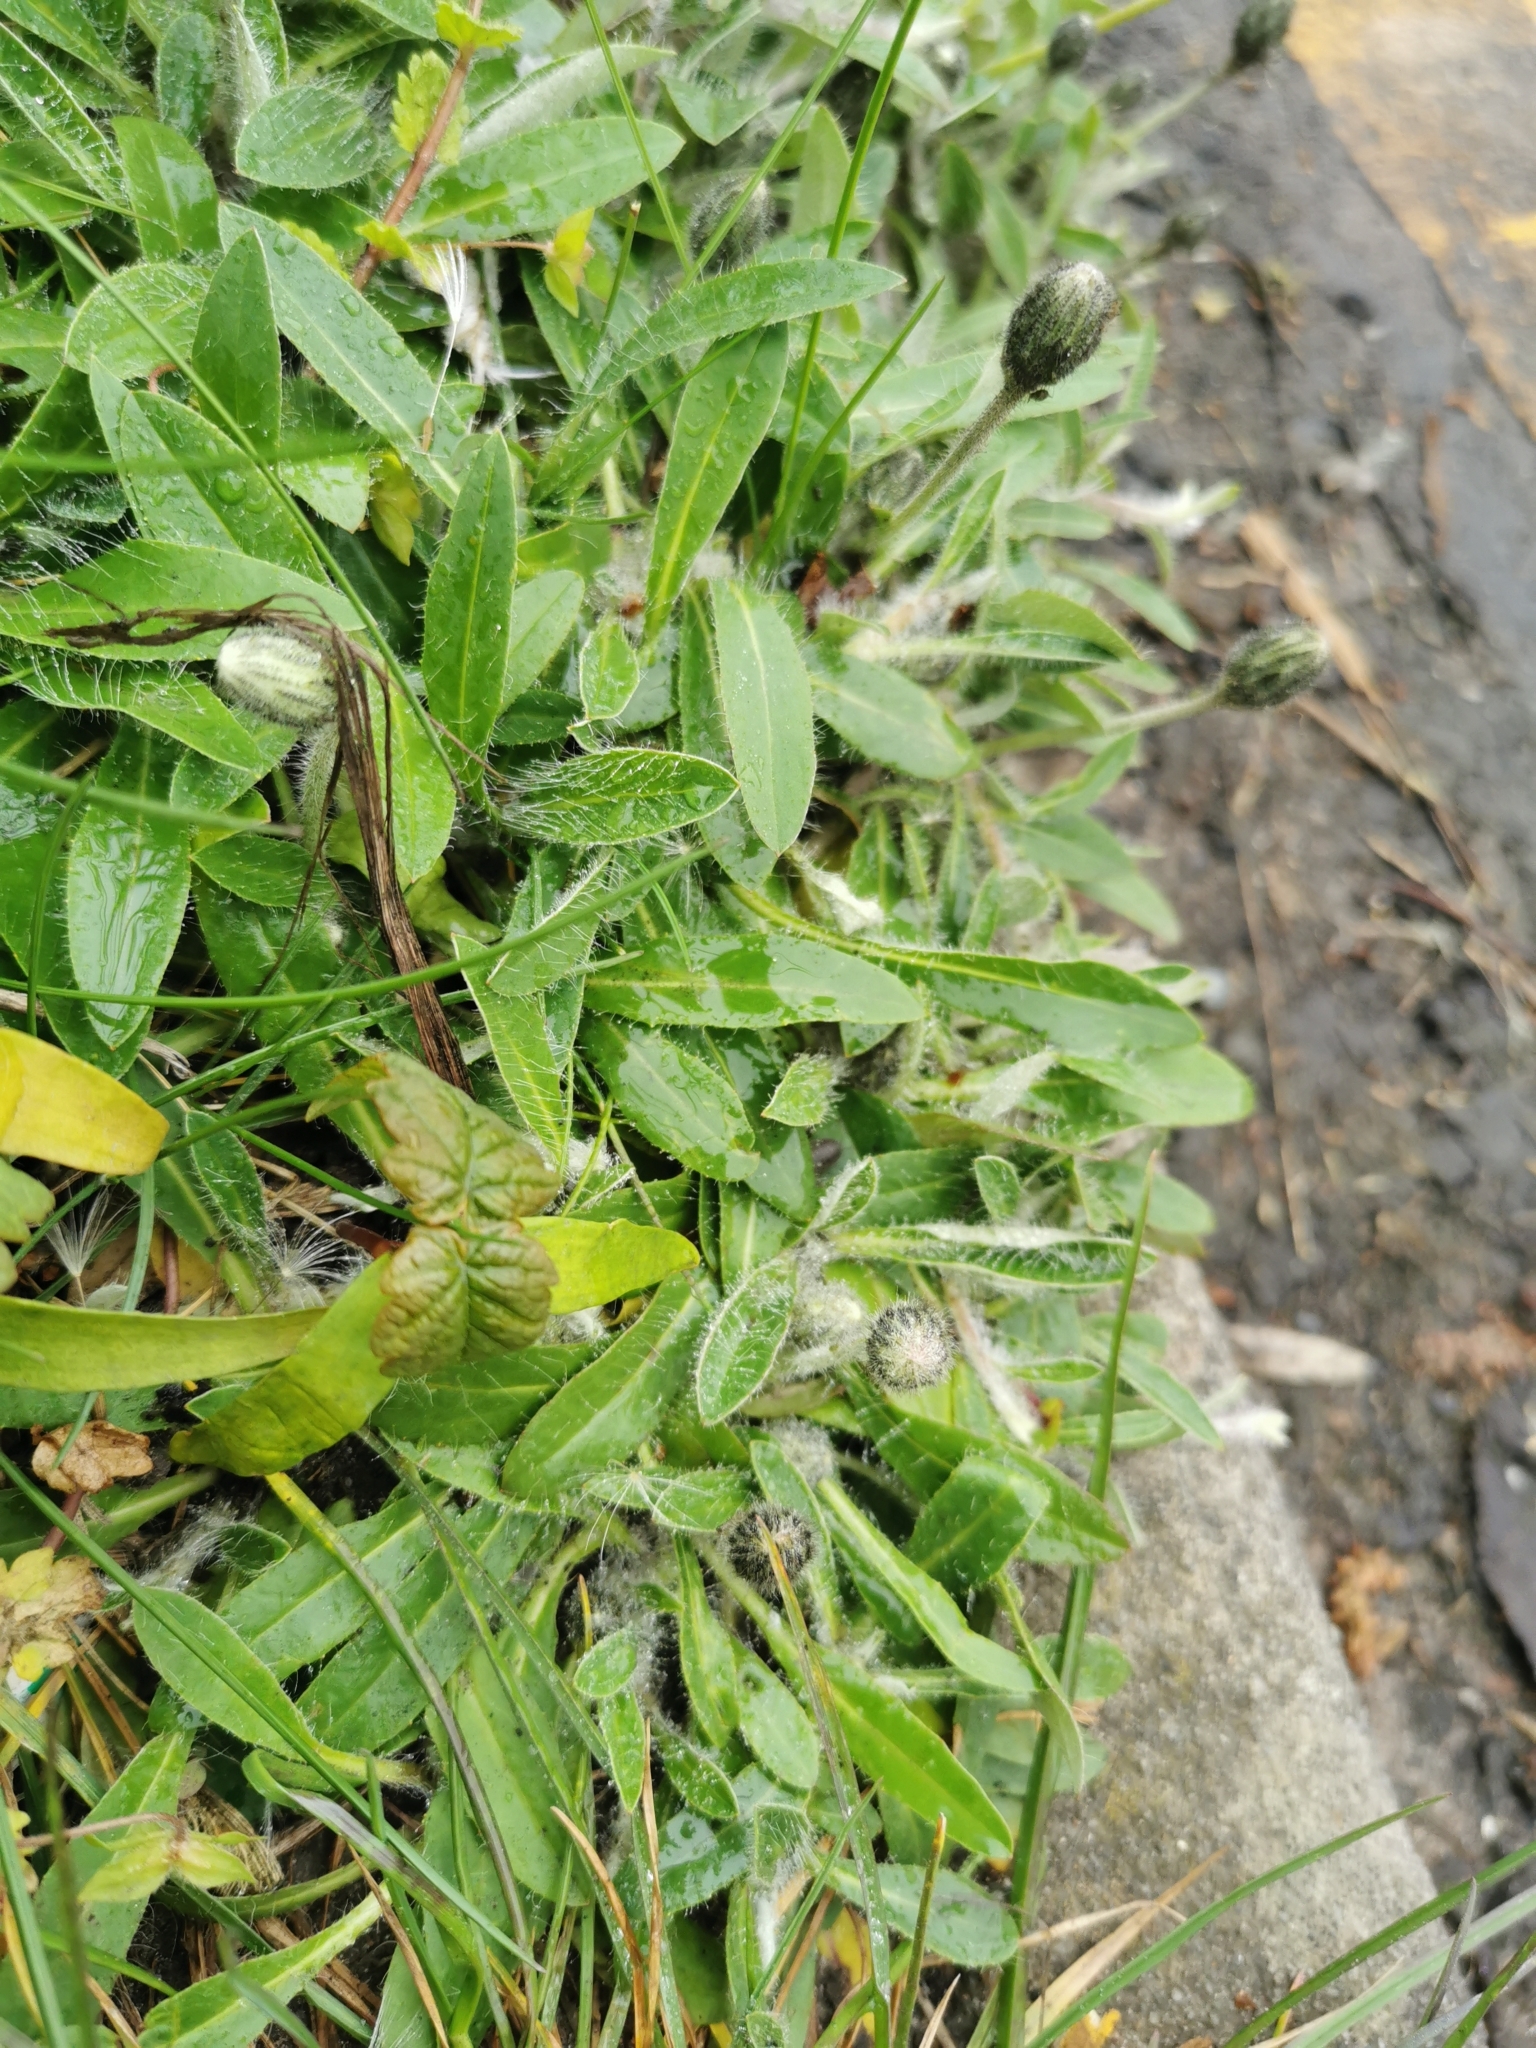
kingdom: Plantae
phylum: Tracheophyta
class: Magnoliopsida
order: Asterales
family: Asteraceae
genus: Pilosella
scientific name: Pilosella officinarum
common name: Mouse-ear hawkweed
